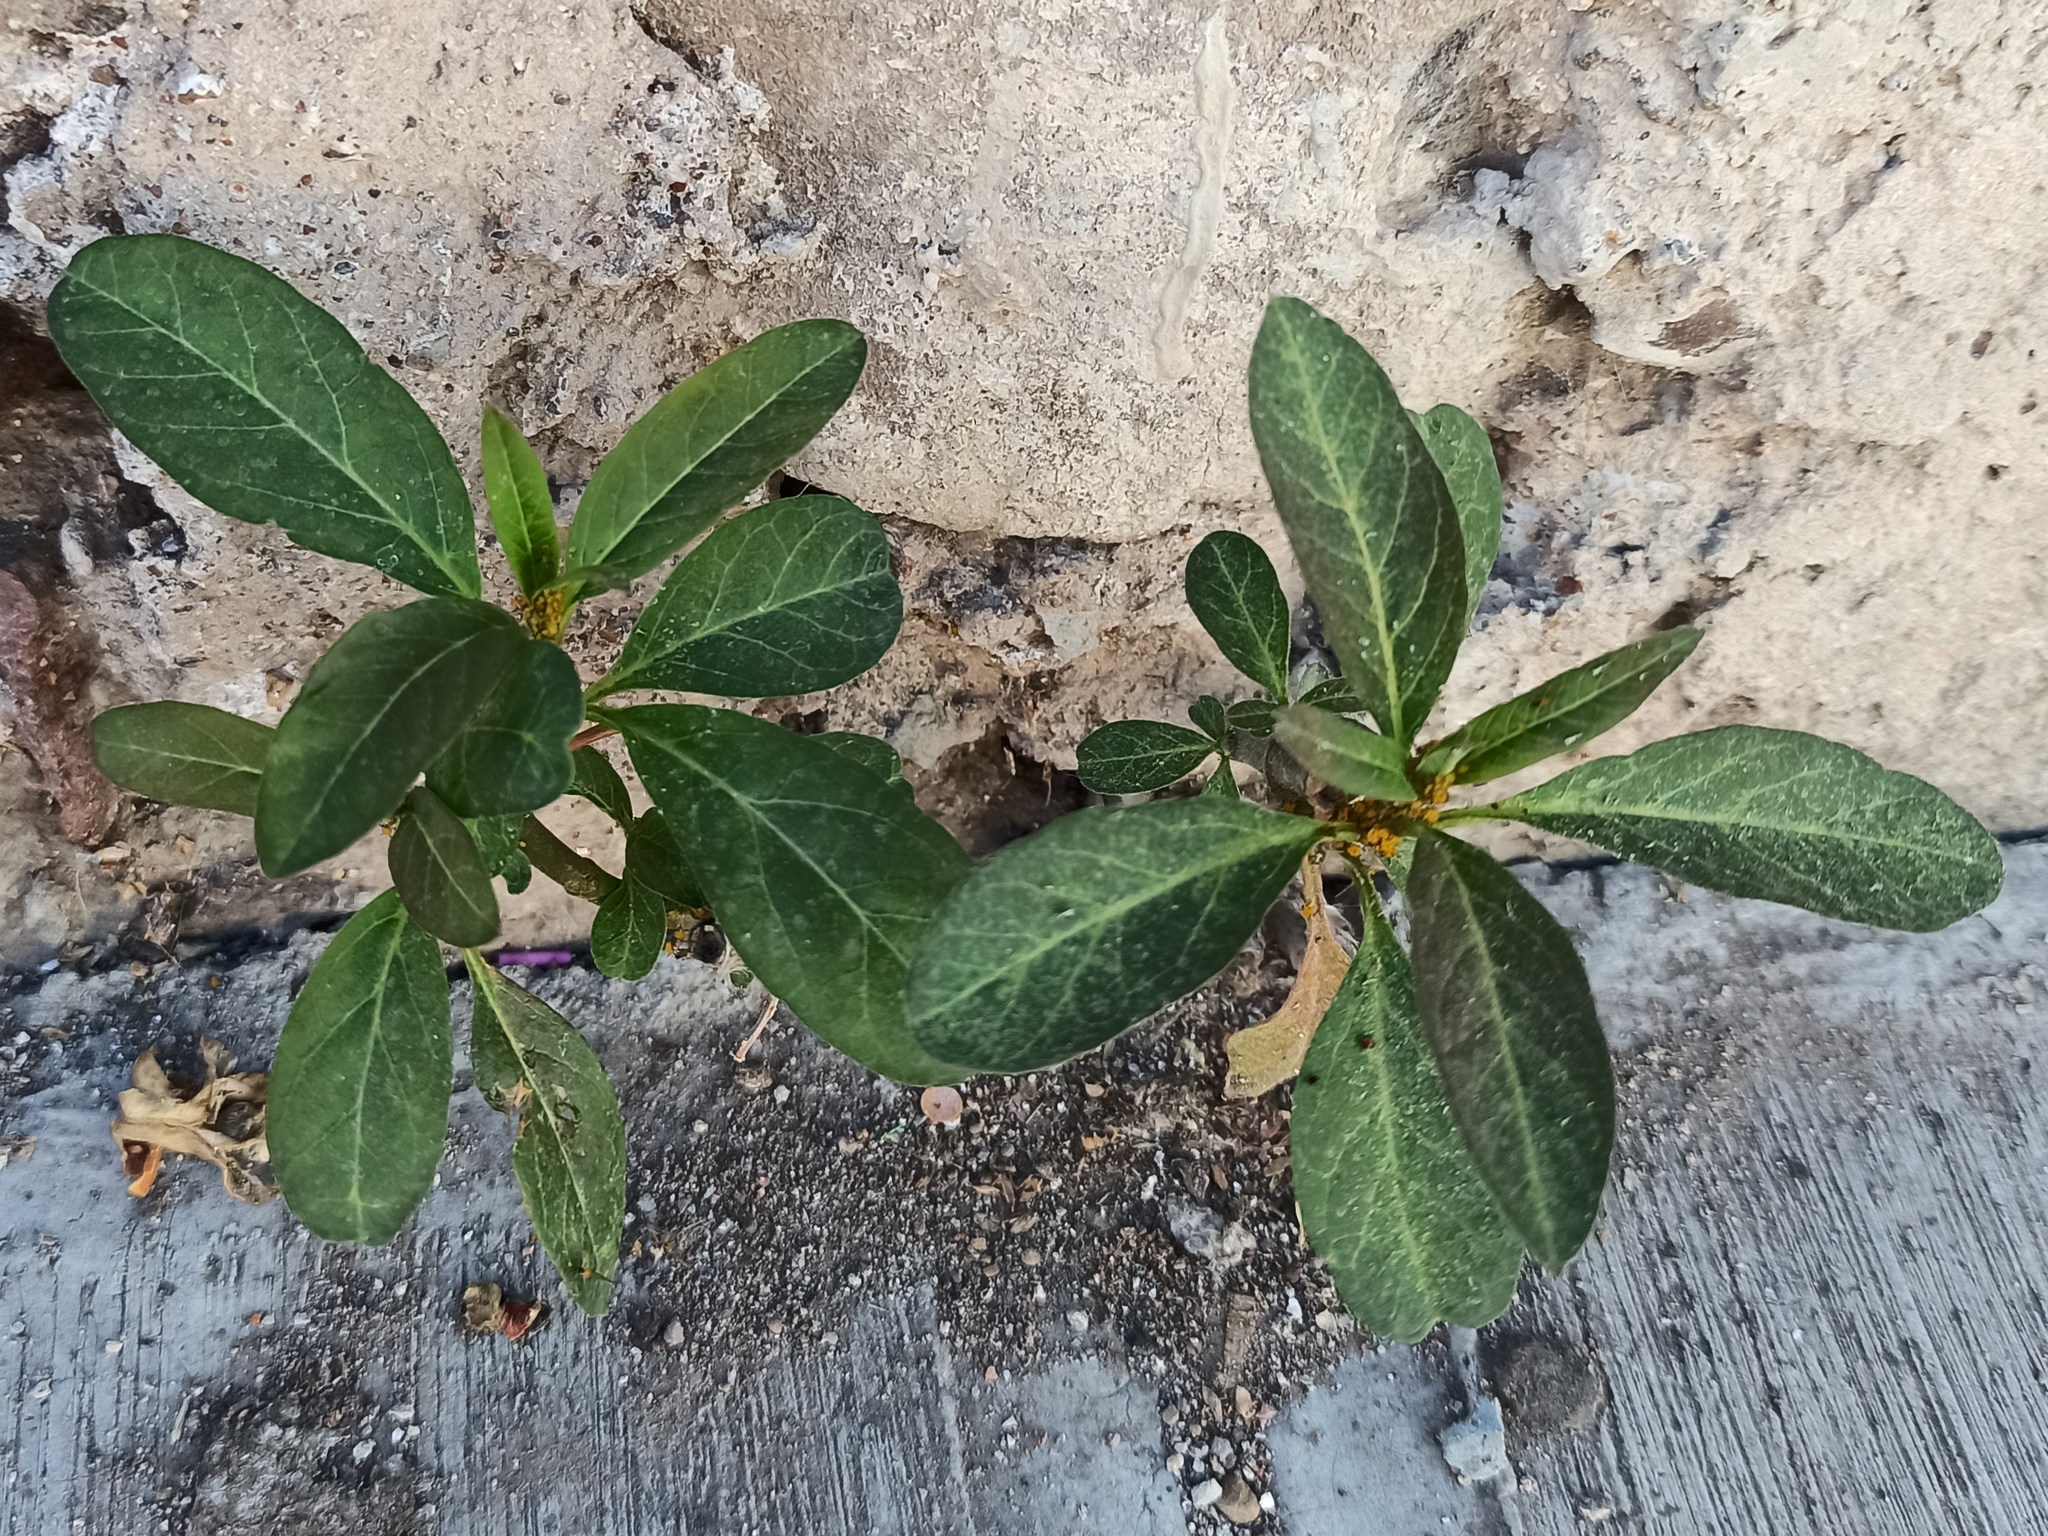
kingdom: Plantae
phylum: Tracheophyta
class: Magnoliopsida
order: Gentianales
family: Apocynaceae
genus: Asclepias
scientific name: Asclepias curassavica
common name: Bloodflower
